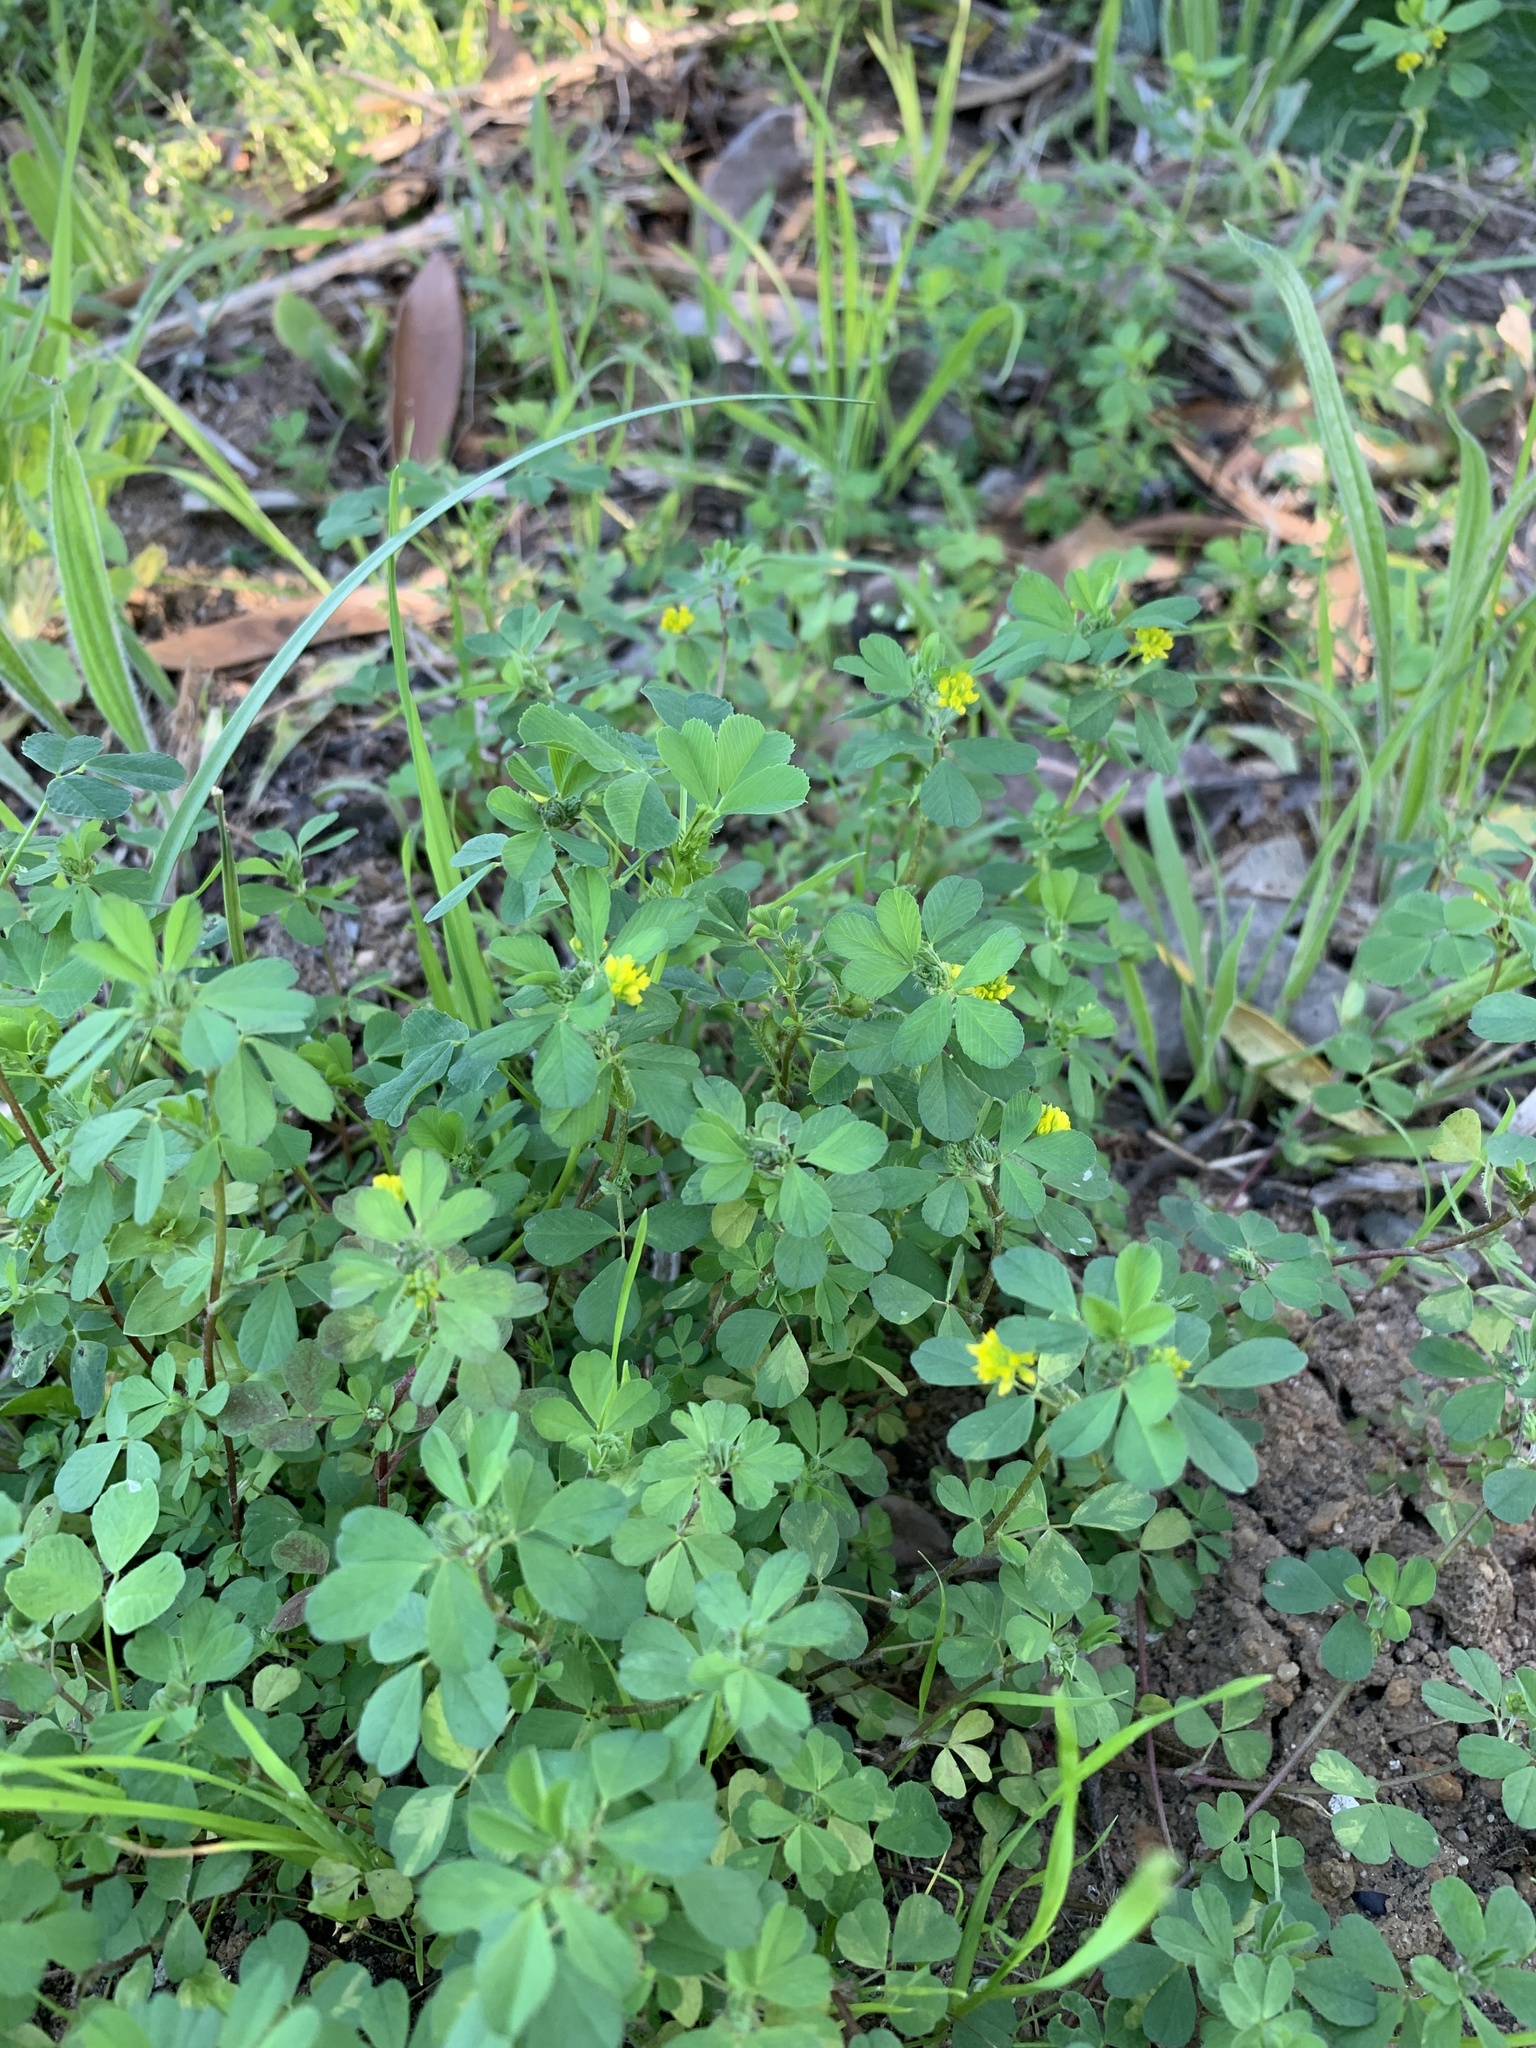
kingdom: Plantae
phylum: Tracheophyta
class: Magnoliopsida
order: Fabales
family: Fabaceae
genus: Trifolium
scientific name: Trifolium dubium
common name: Suckling clover
